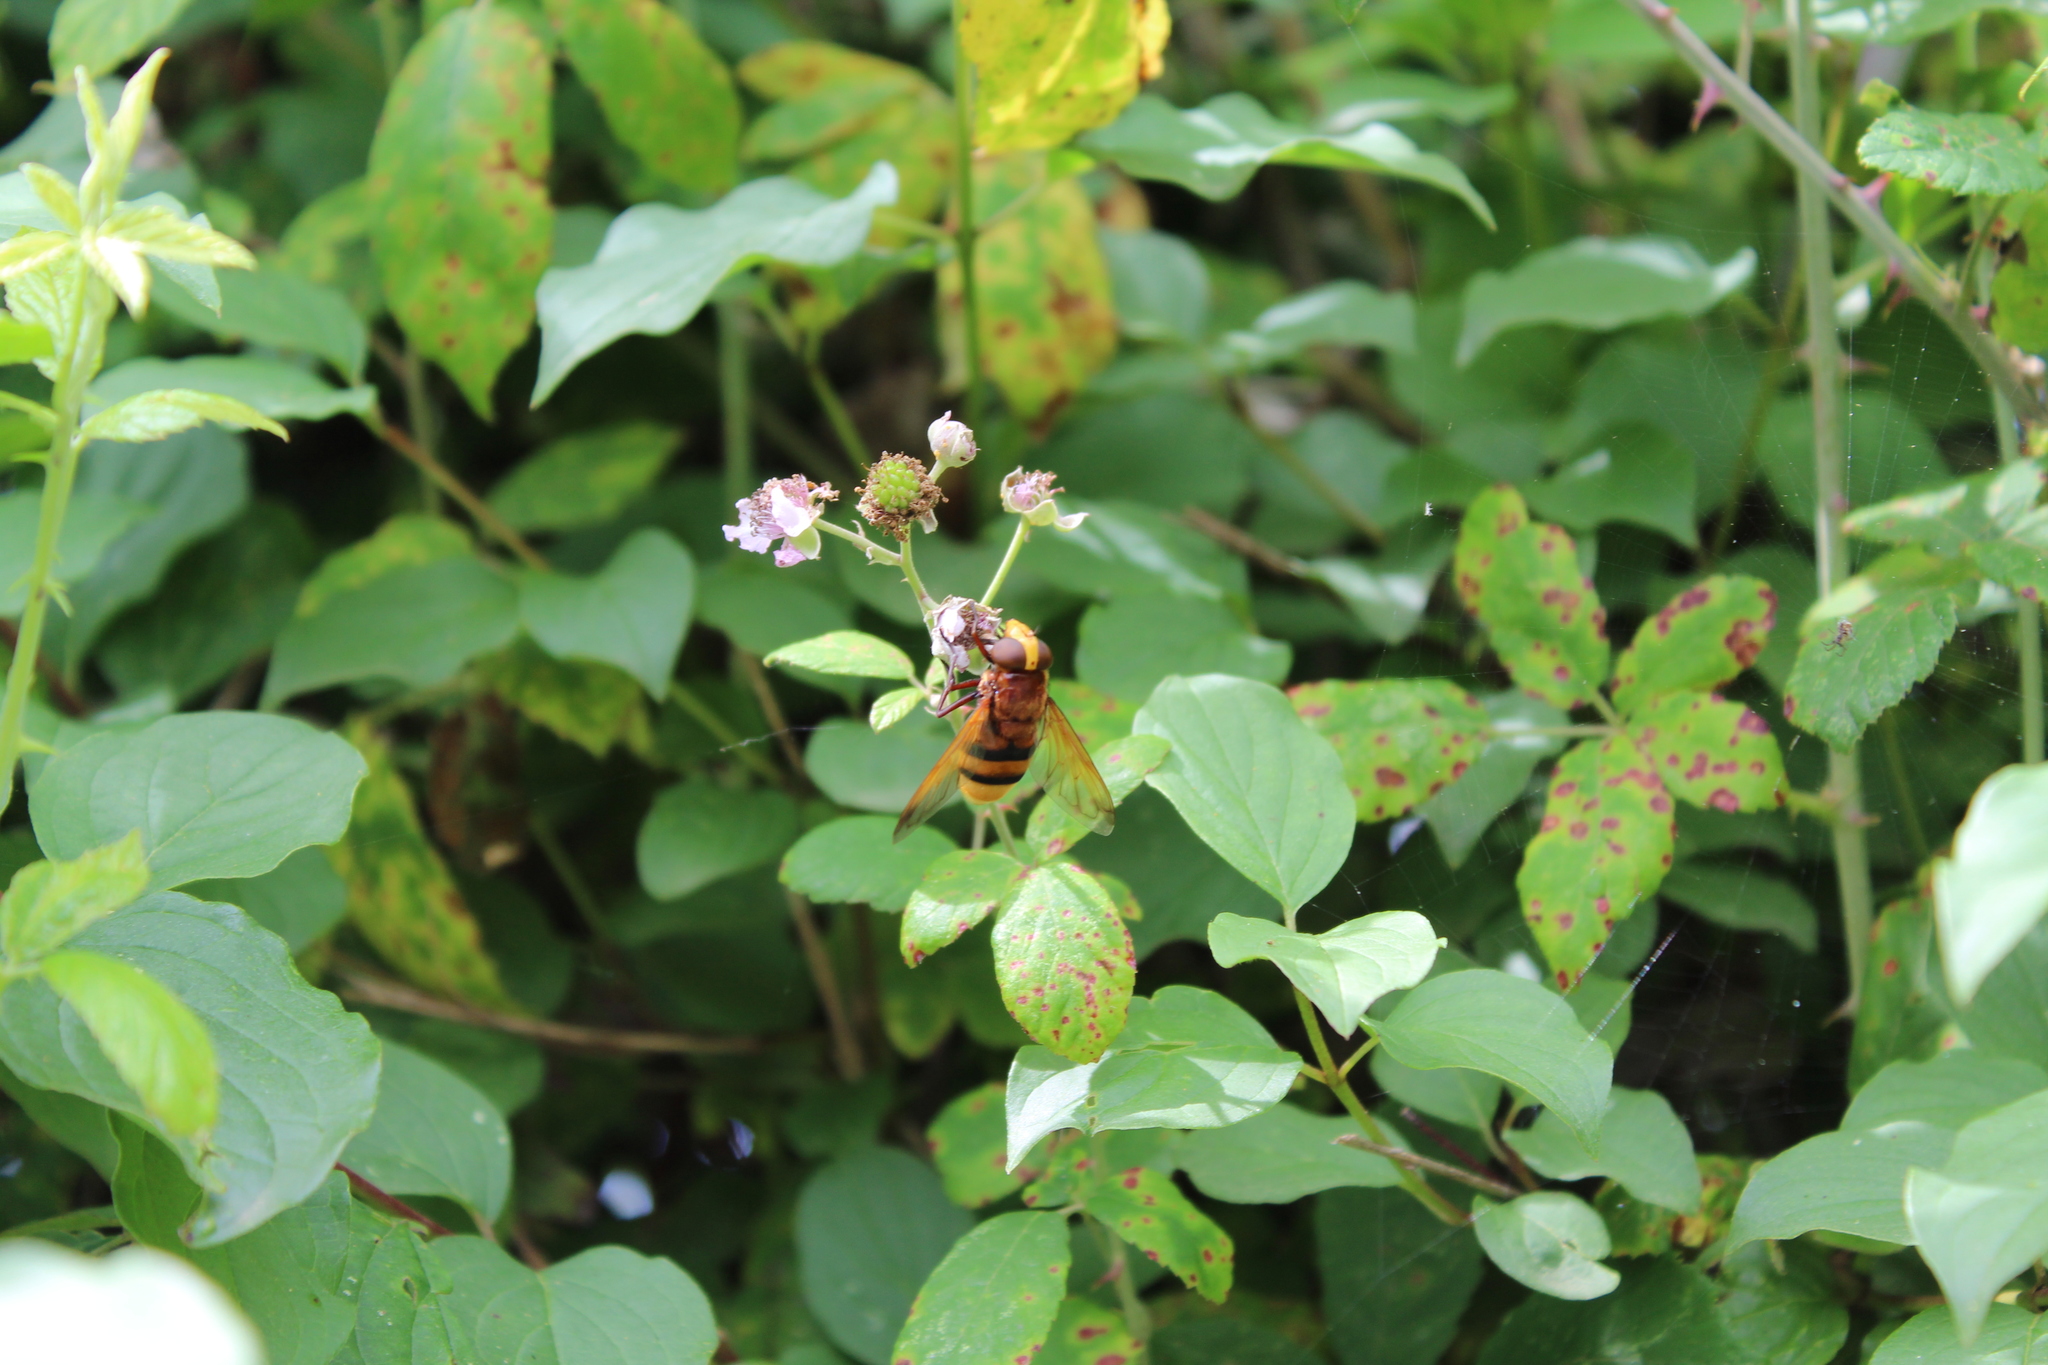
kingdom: Animalia
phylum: Arthropoda
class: Insecta
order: Diptera
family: Syrphidae
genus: Volucella
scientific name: Volucella zonaria
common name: Hornet hoverfly
